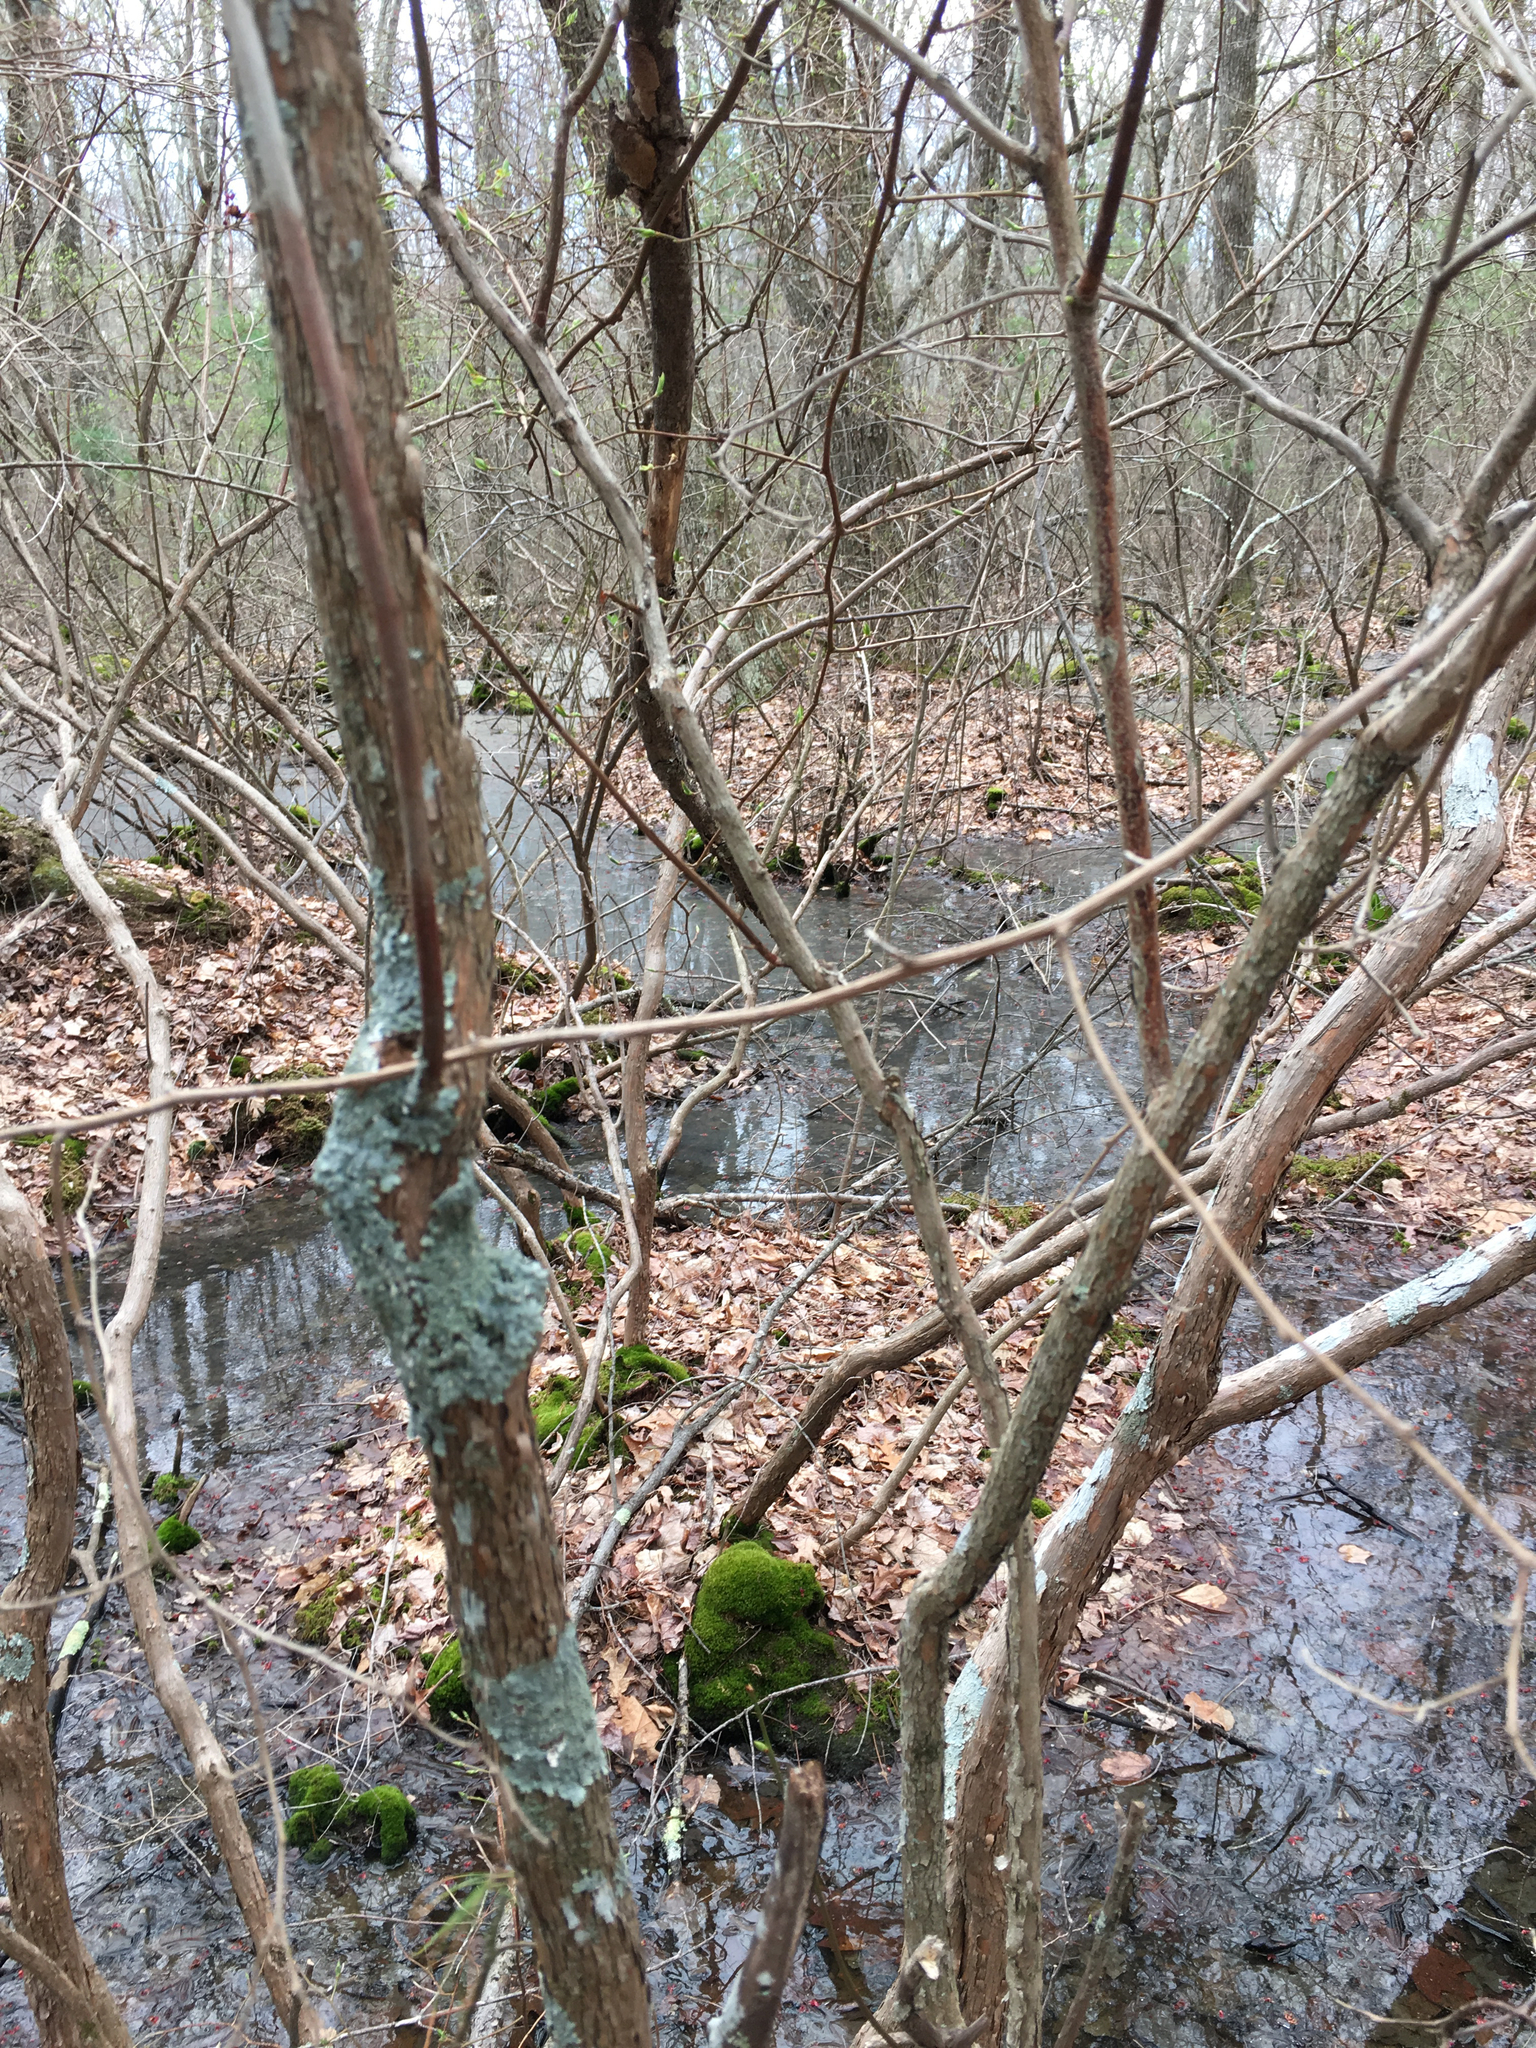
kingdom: Plantae
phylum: Tracheophyta
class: Magnoliopsida
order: Ericales
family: Ericaceae
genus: Vaccinium
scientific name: Vaccinium corymbosum
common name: Blueberry
